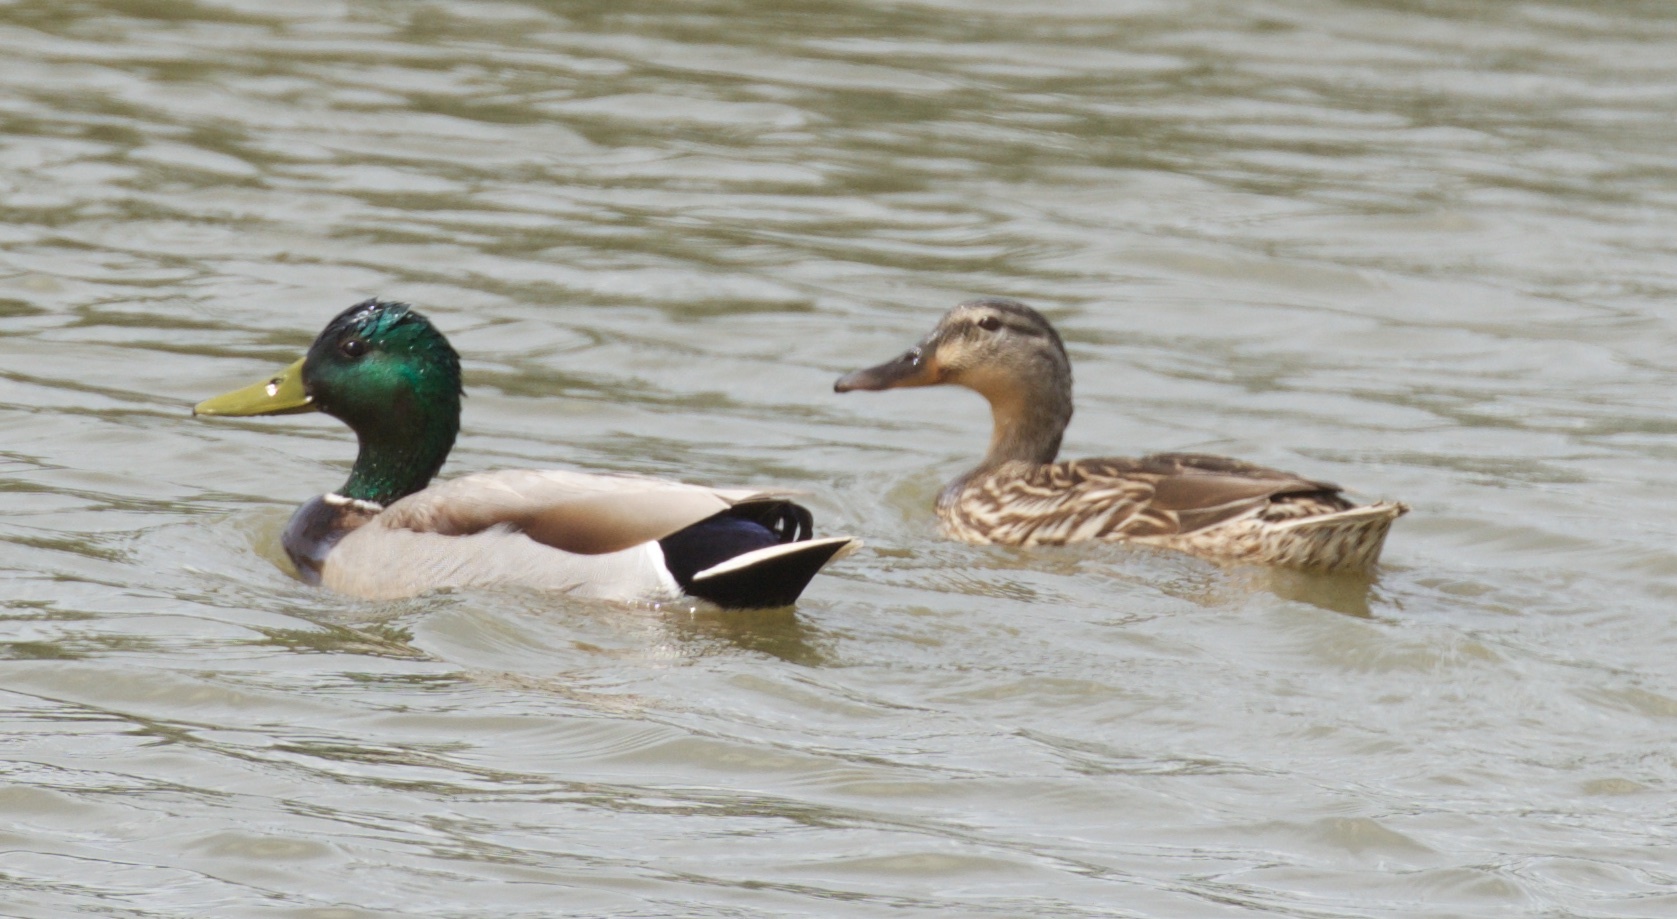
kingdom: Animalia
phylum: Chordata
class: Aves
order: Anseriformes
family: Anatidae
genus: Anas
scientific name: Anas platyrhynchos
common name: Mallard
